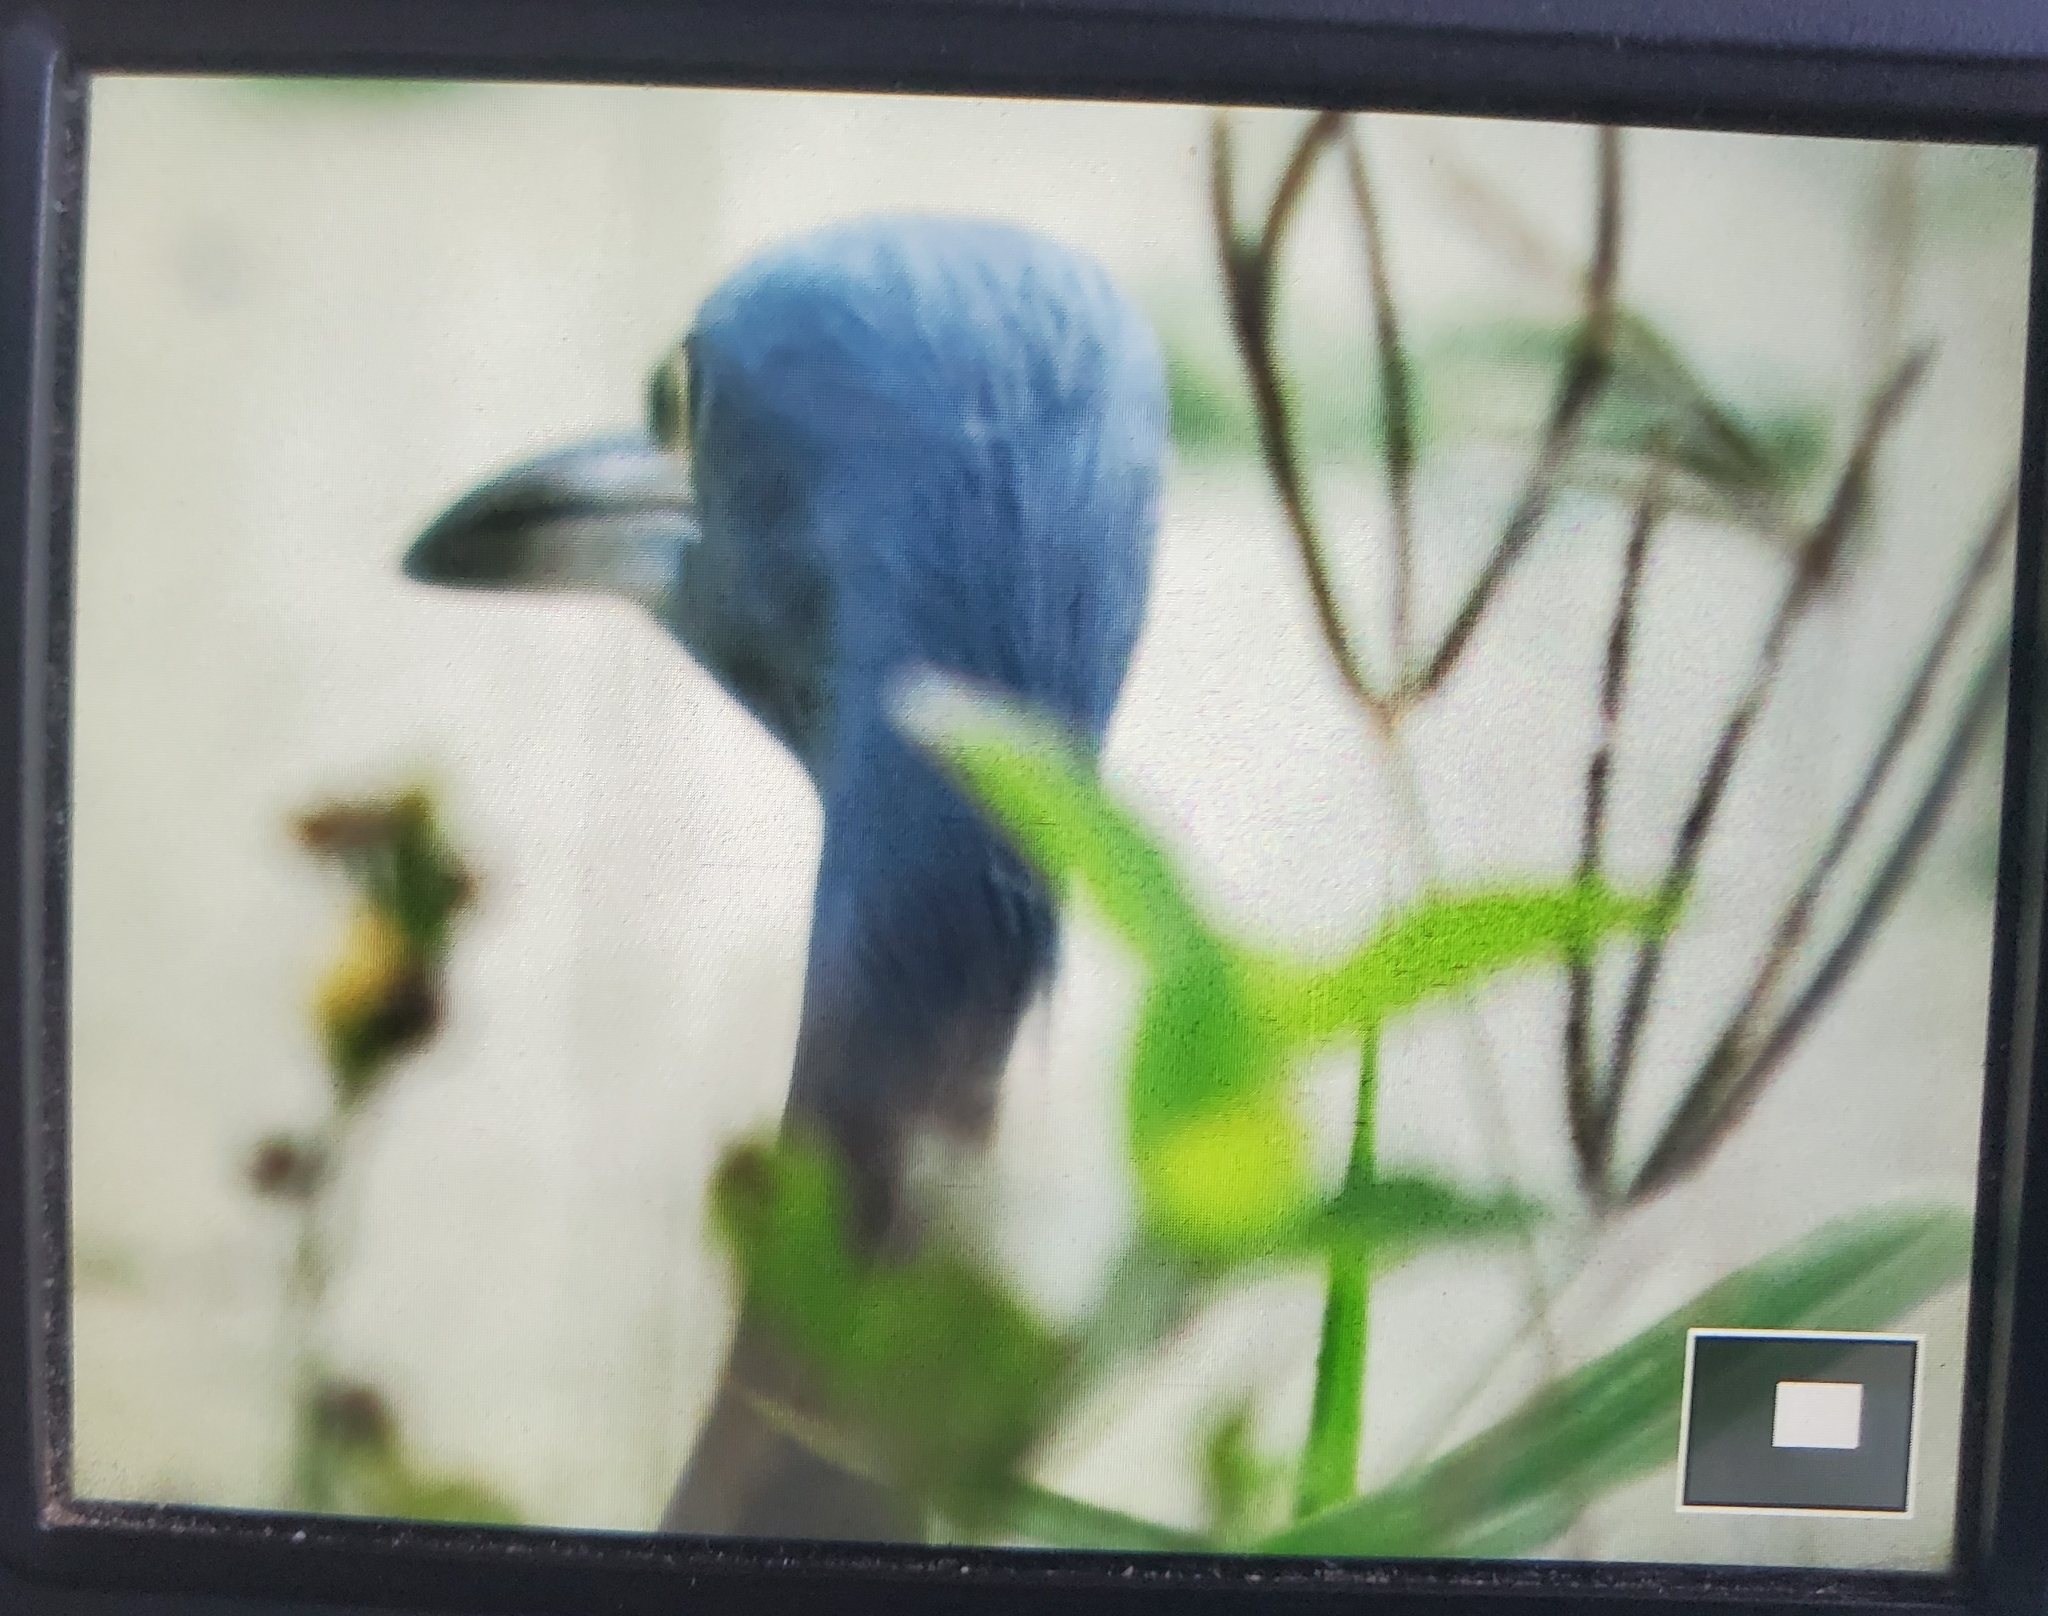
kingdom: Animalia
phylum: Chordata
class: Aves
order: Pelecaniformes
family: Ardeidae
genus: Egretta
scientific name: Egretta caerulea
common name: Little blue heron
